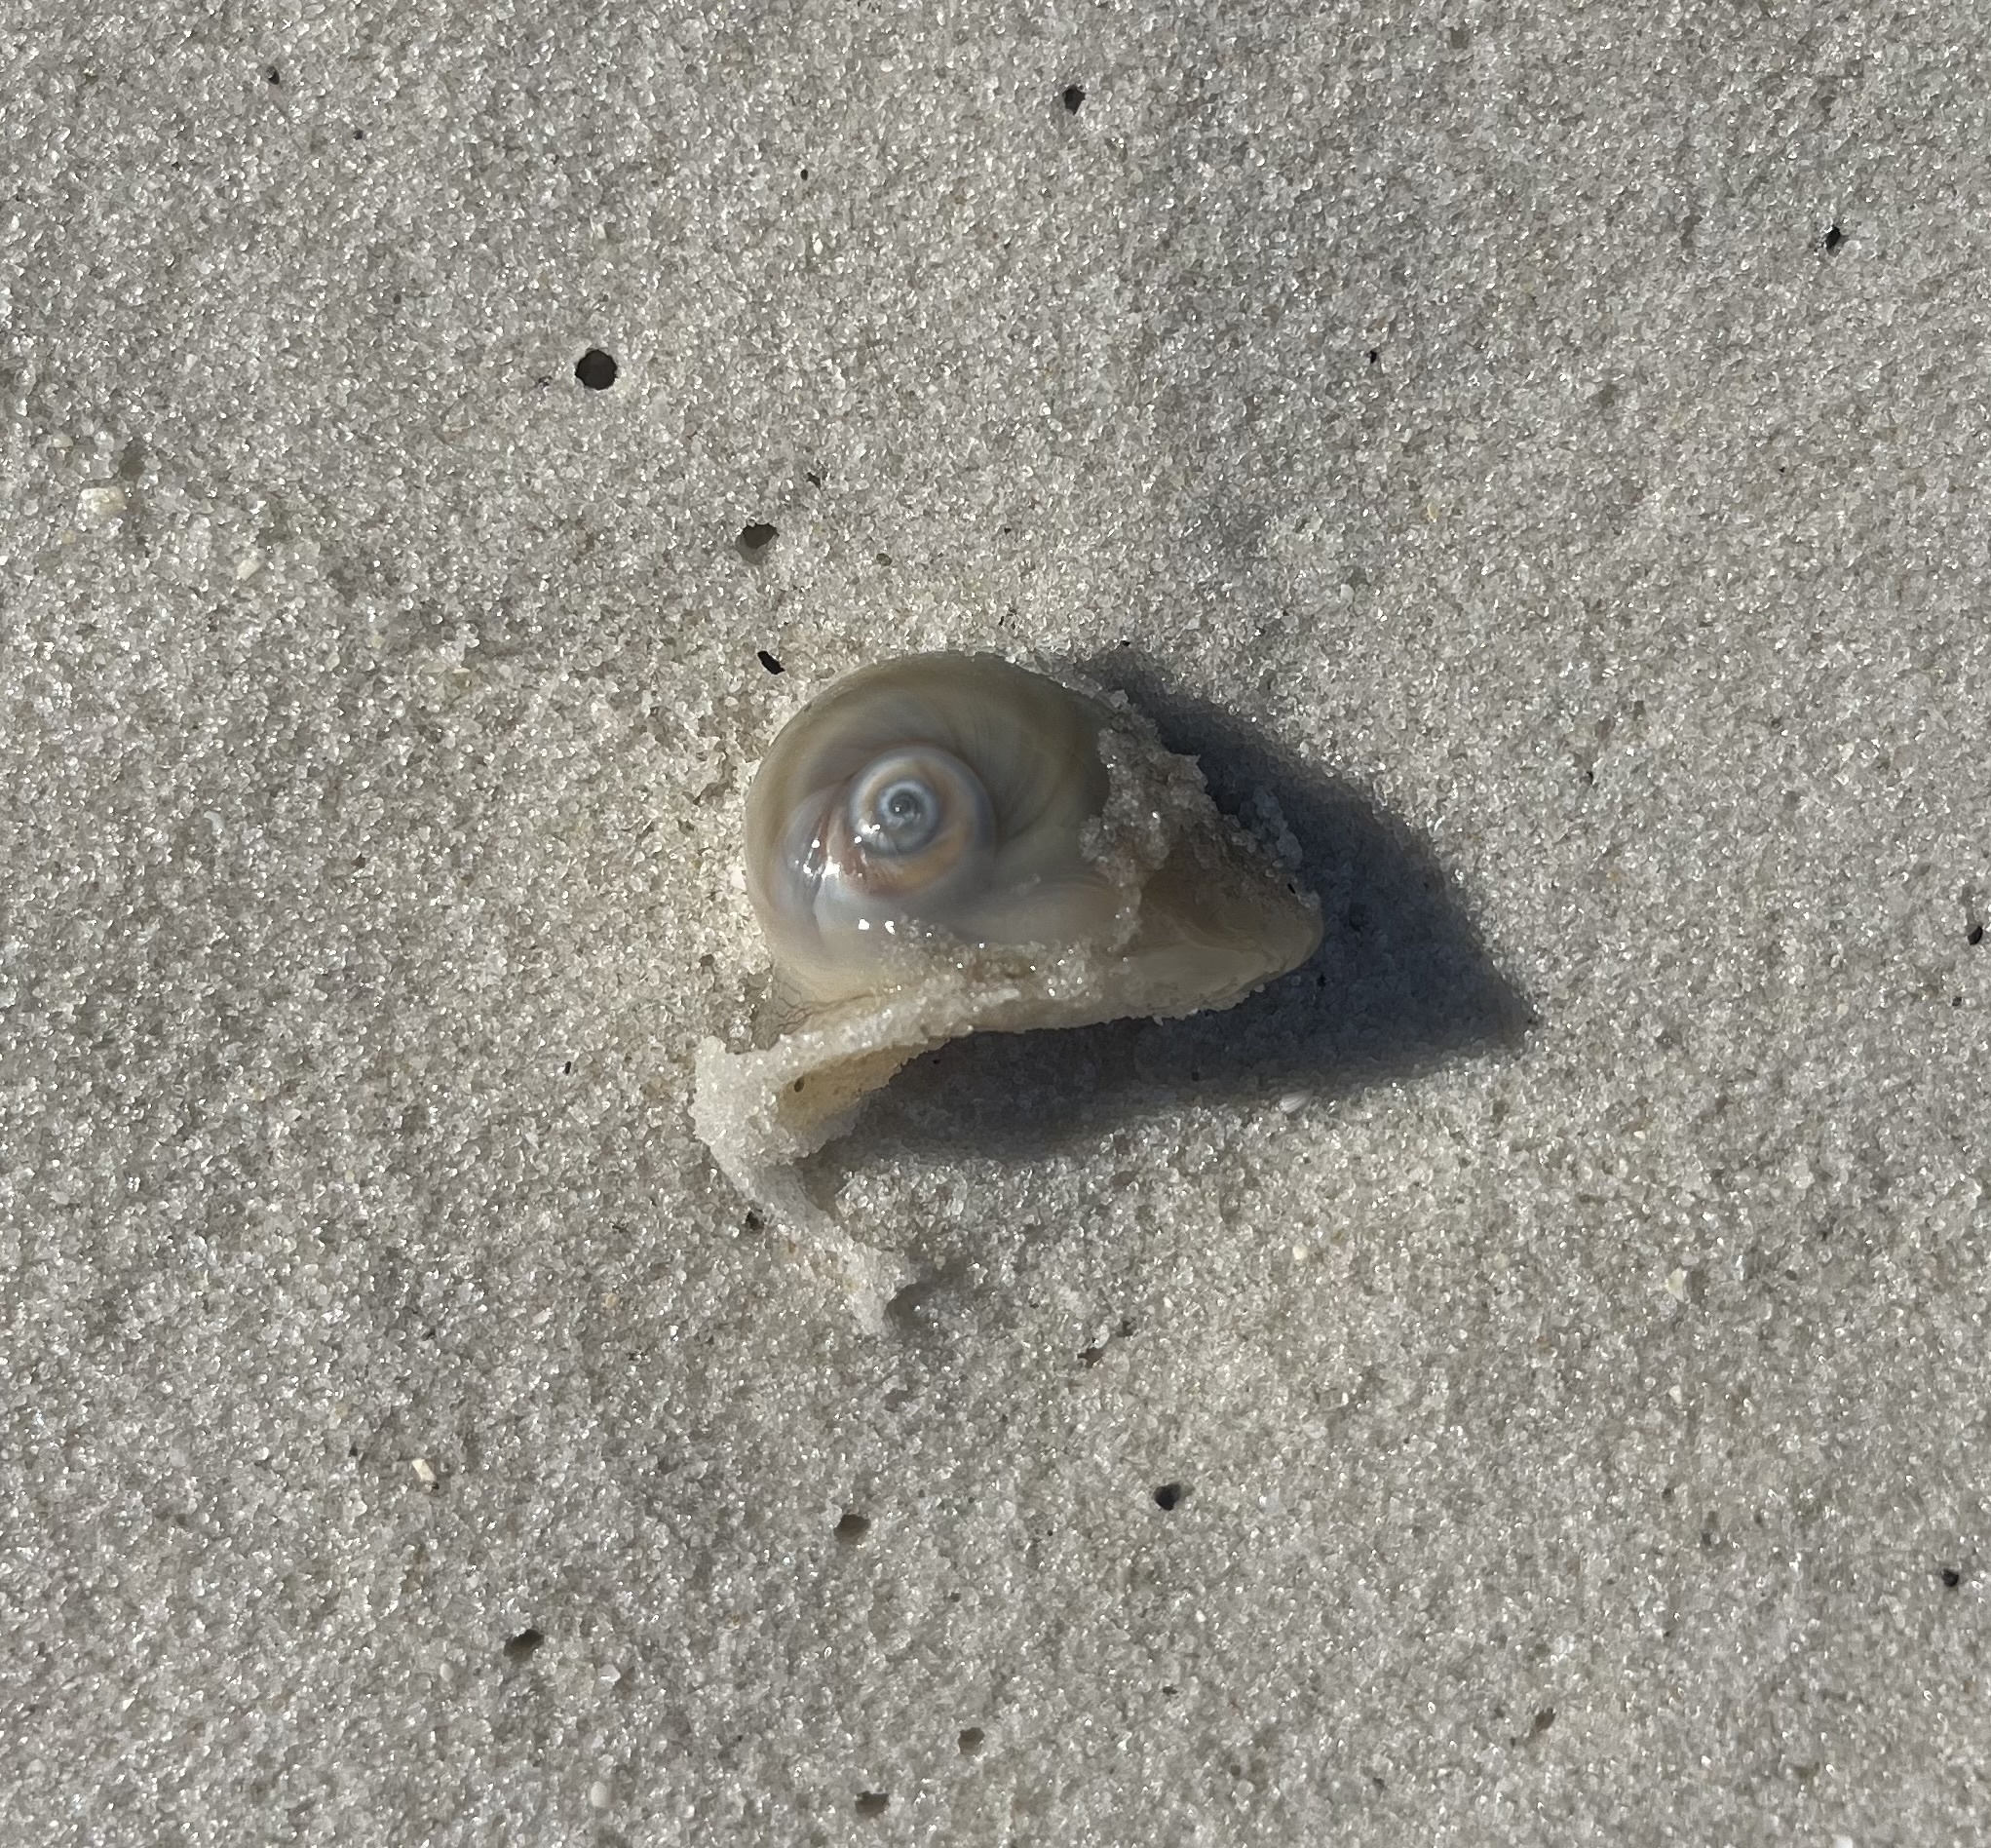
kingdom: Animalia
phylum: Mollusca
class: Gastropoda
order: Littorinimorpha
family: Naticidae
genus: Neverita
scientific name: Neverita
